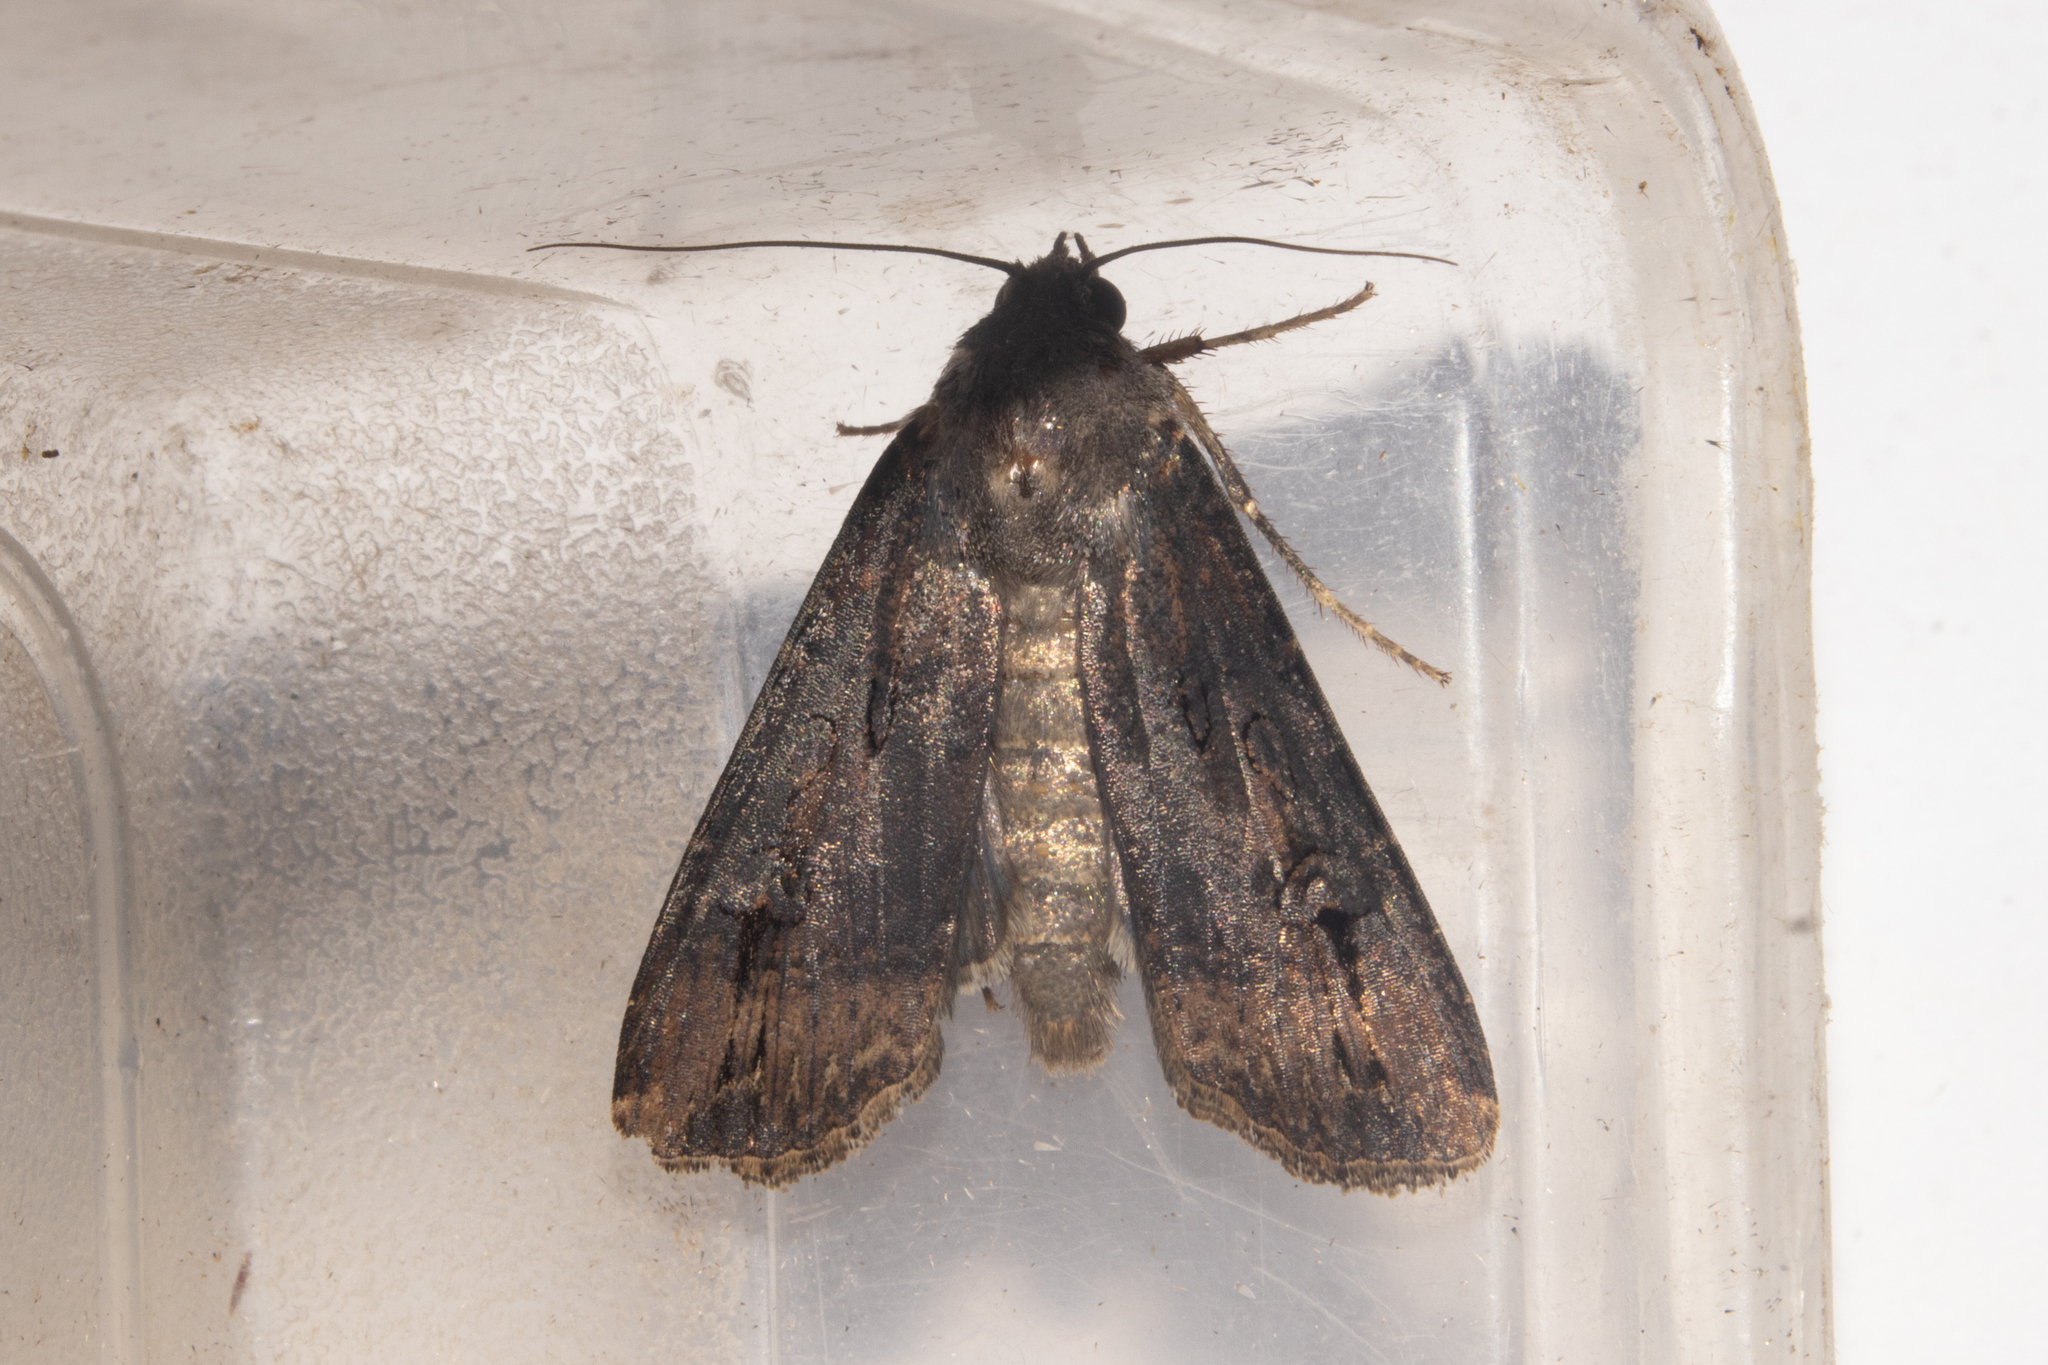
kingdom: Animalia
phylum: Arthropoda
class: Insecta
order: Lepidoptera
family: Noctuidae
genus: Agrotis
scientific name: Agrotis ipsilon
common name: Dark sword-grass
